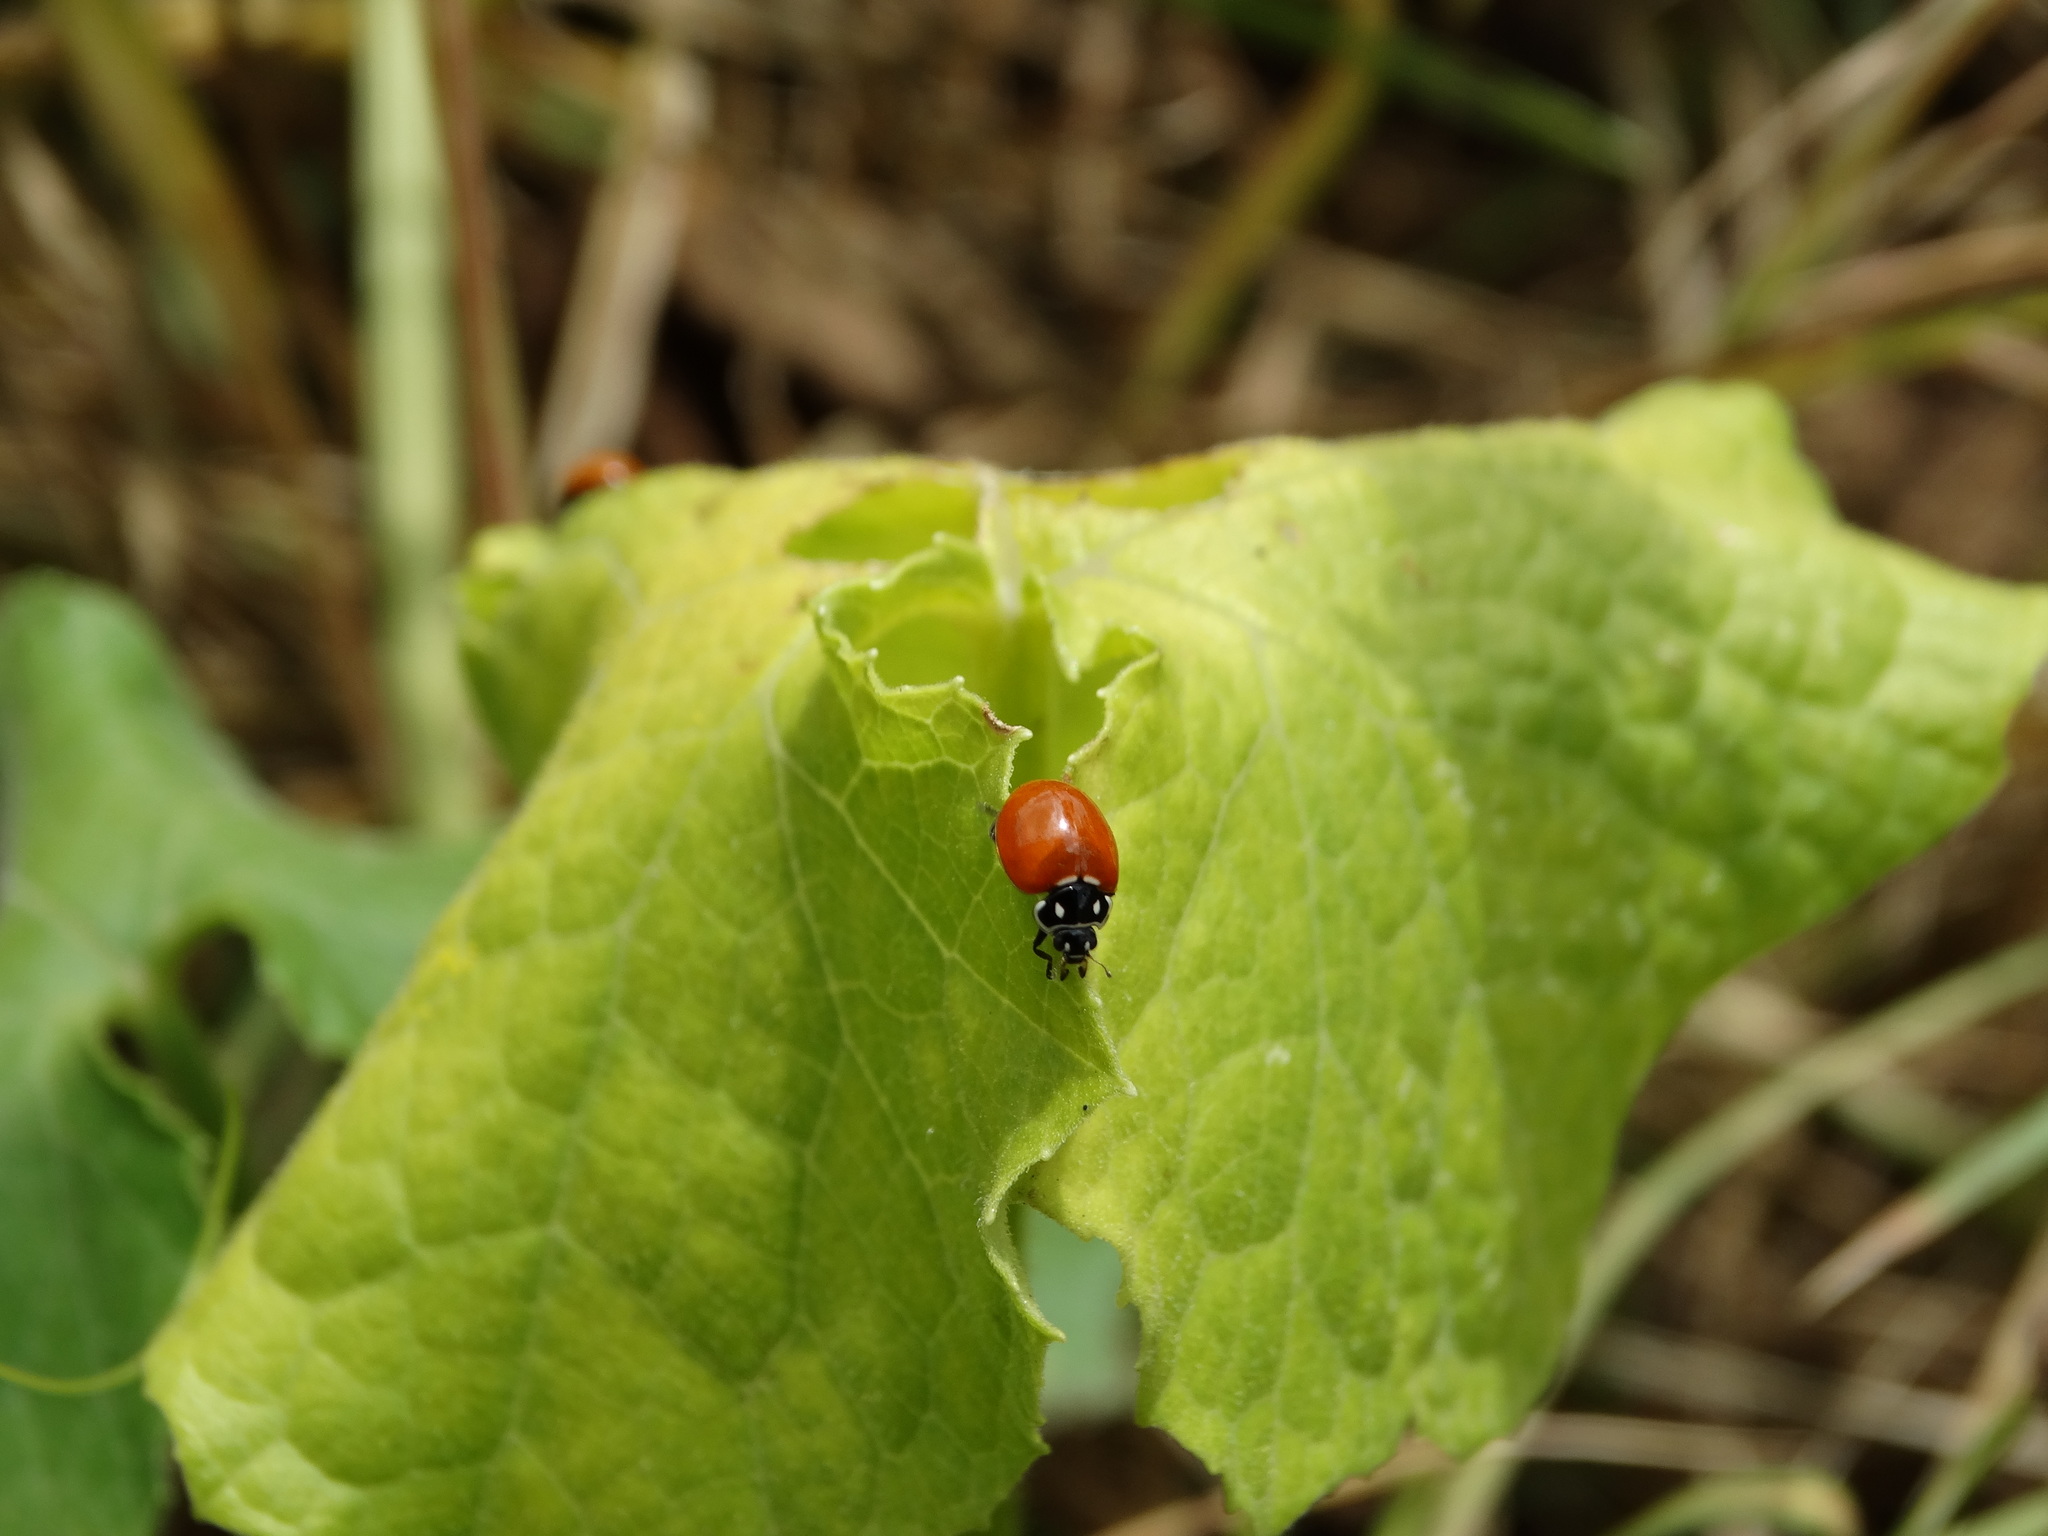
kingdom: Animalia
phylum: Arthropoda
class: Insecta
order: Coleoptera
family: Coccinellidae
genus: Cycloneda
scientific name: Cycloneda sanguinea
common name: Ladybird beetle
